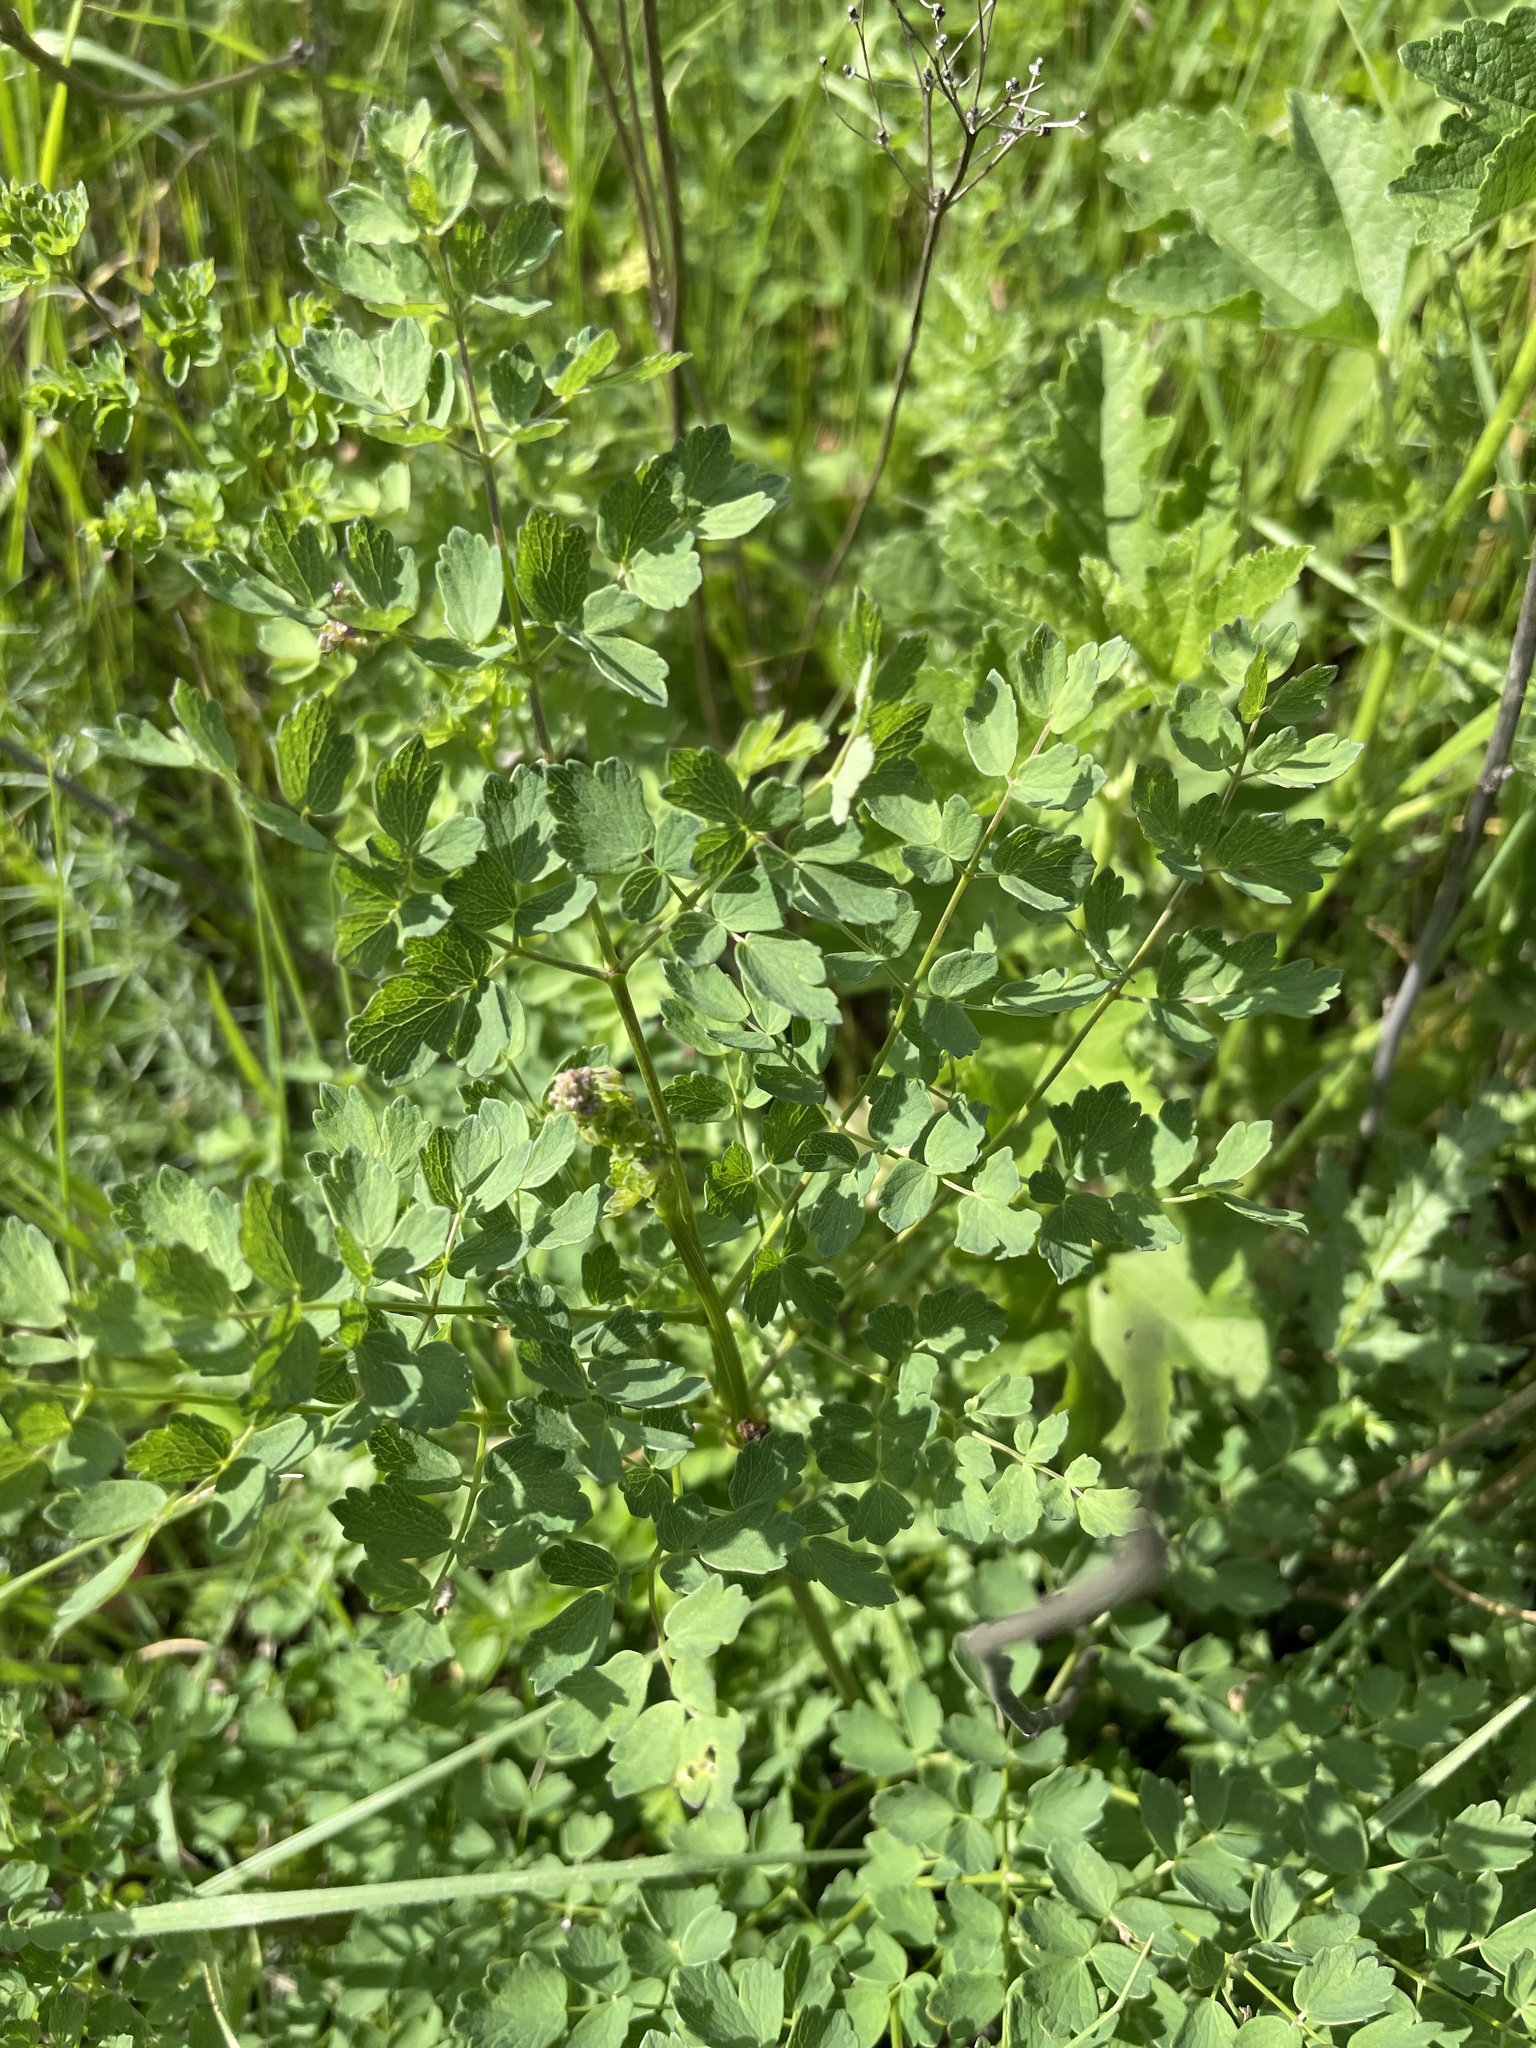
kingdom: Plantae
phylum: Tracheophyta
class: Magnoliopsida
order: Ranunculales
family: Ranunculaceae
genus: Thalictrum
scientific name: Thalictrum minus
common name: Lesser meadow-rue
